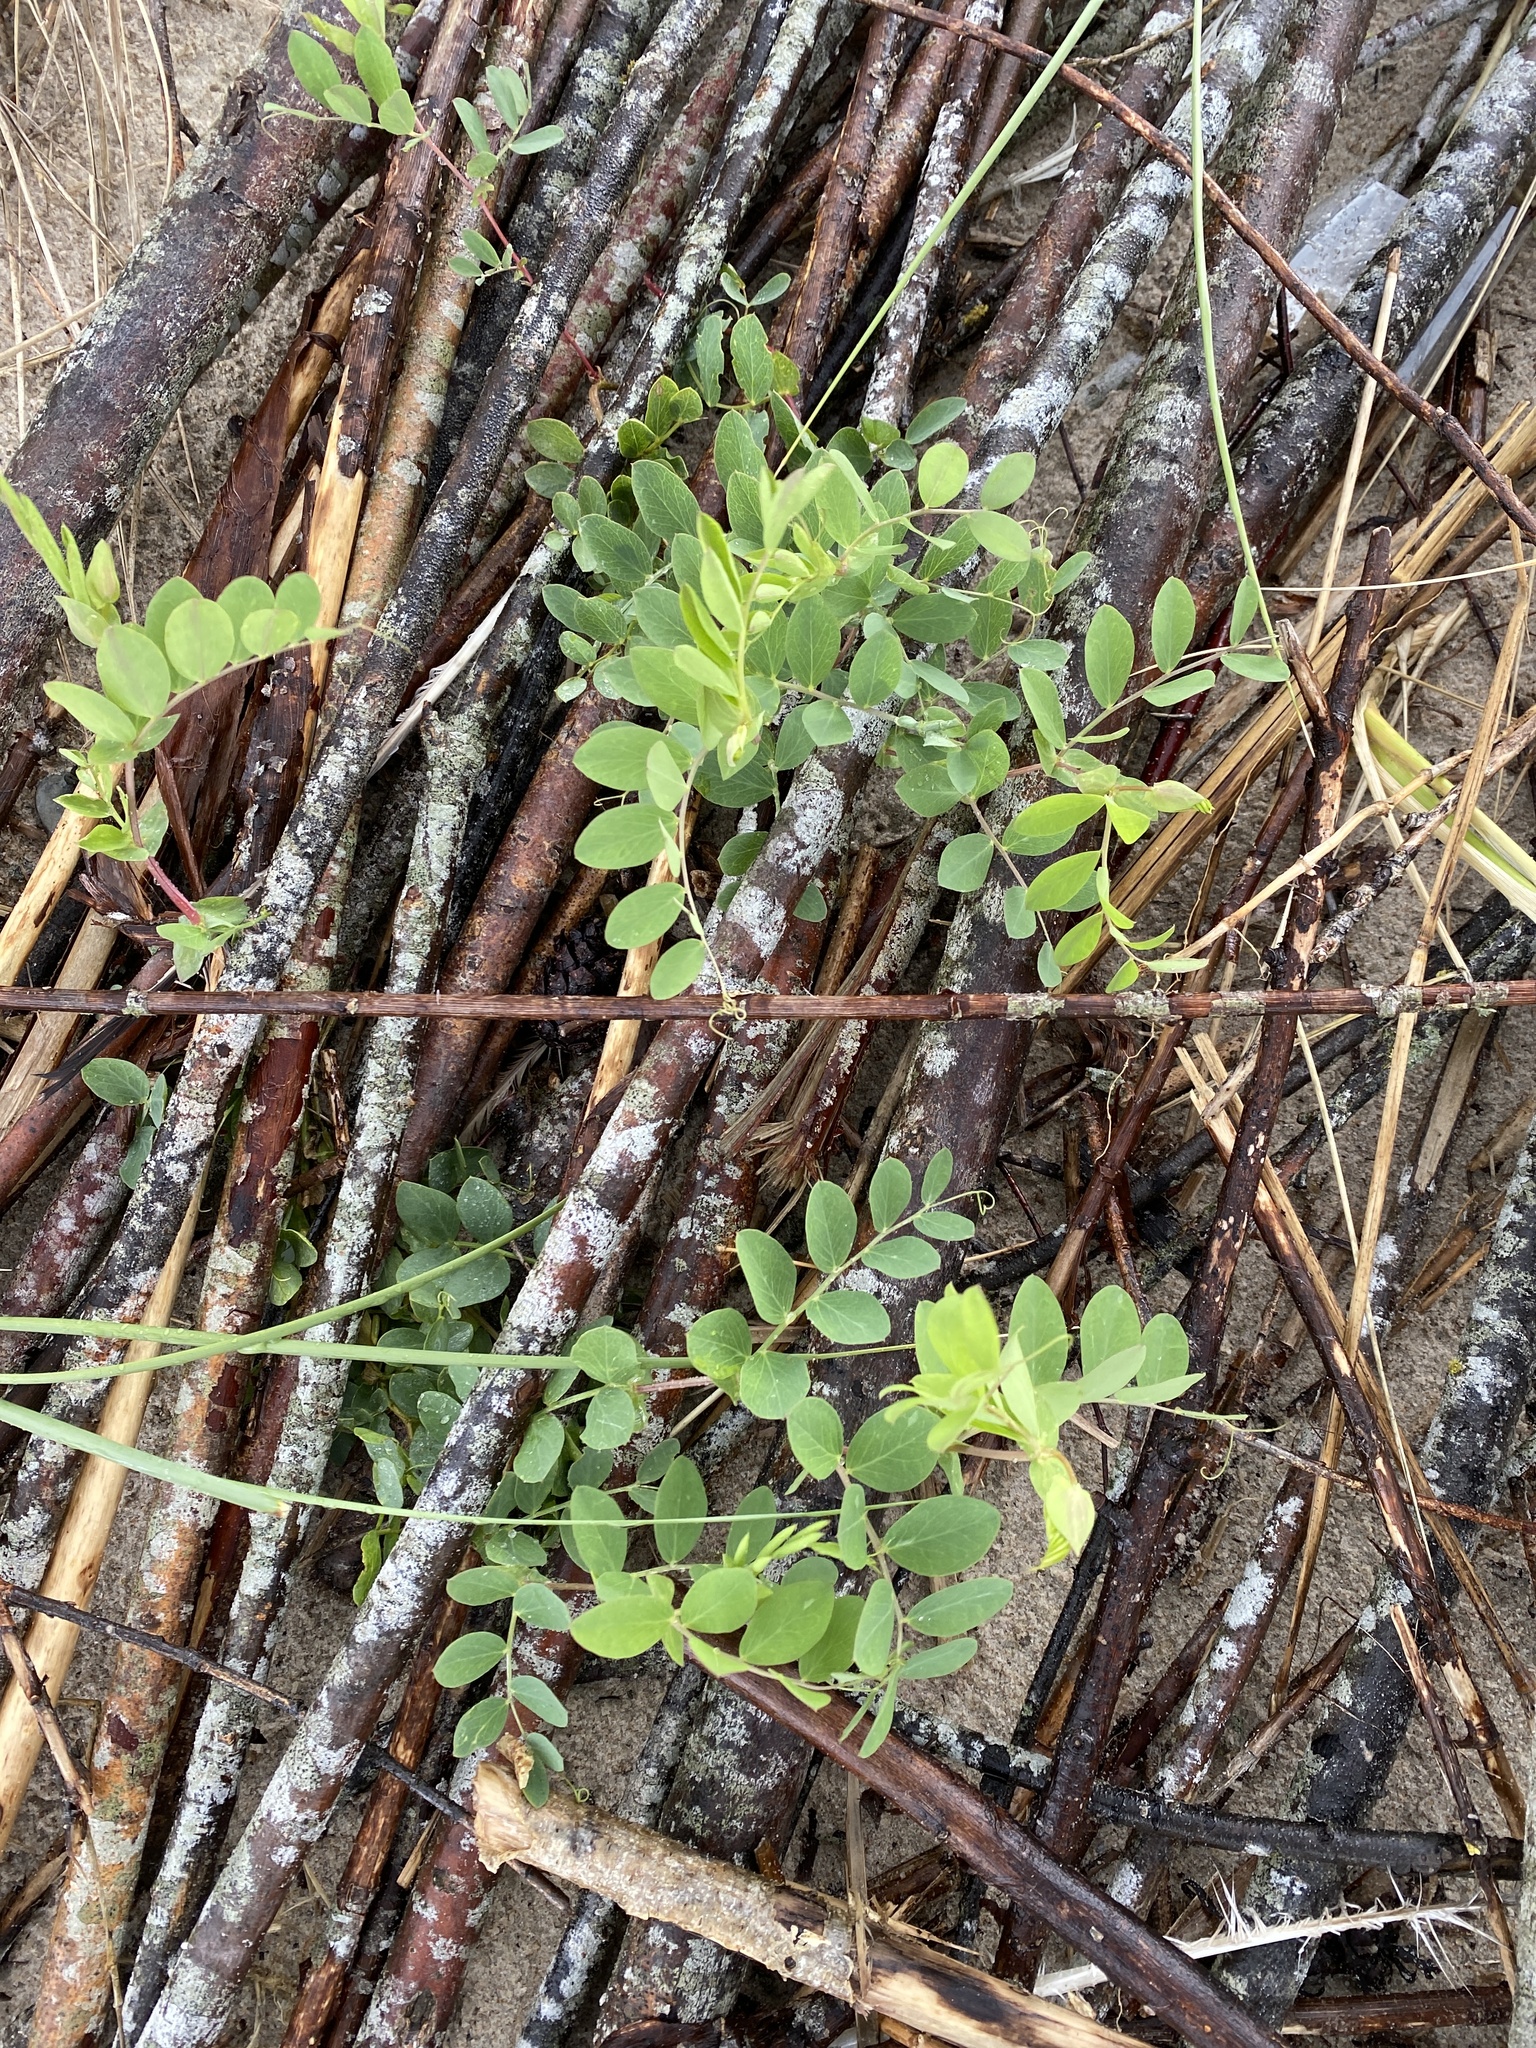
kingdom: Plantae
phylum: Tracheophyta
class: Magnoliopsida
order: Fabales
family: Fabaceae
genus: Lathyrus
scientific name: Lathyrus japonicus
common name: Sea pea
